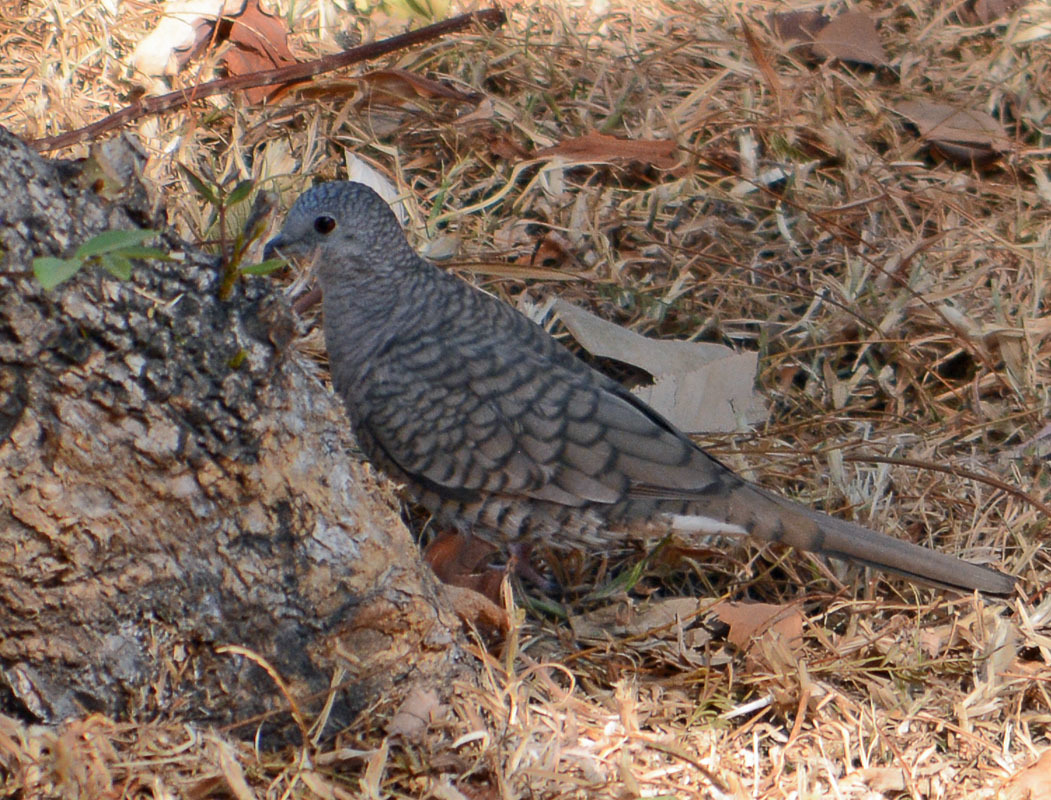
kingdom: Animalia
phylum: Chordata
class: Aves
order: Columbiformes
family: Columbidae
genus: Columbina
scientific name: Columbina inca
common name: Inca dove
